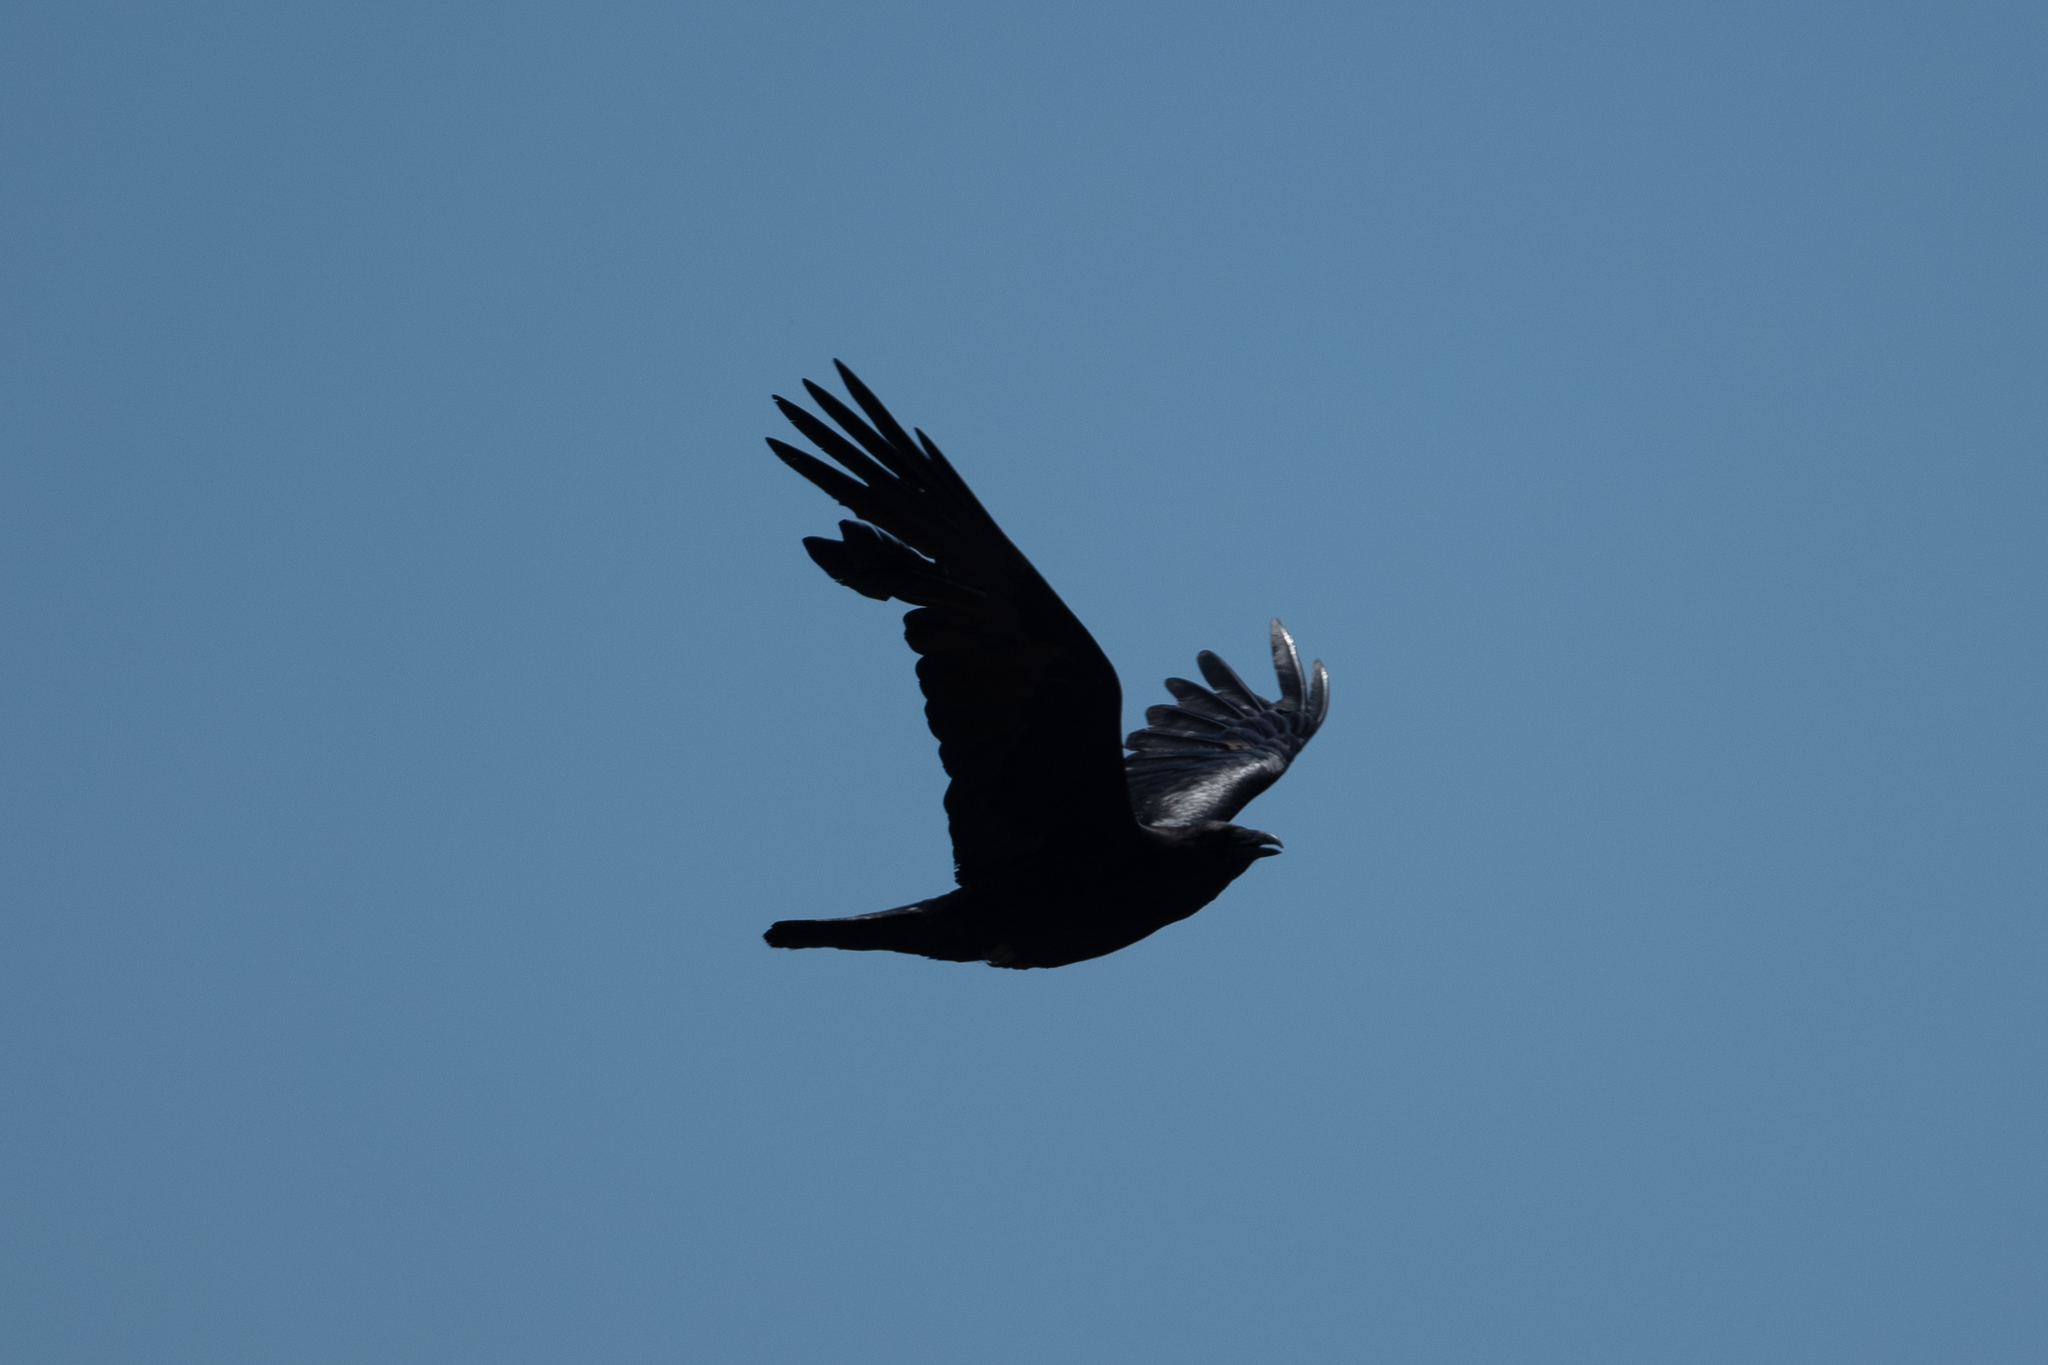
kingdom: Animalia
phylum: Chordata
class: Aves
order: Passeriformes
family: Corvidae
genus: Corvus
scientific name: Corvus brachyrhynchos
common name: American crow
